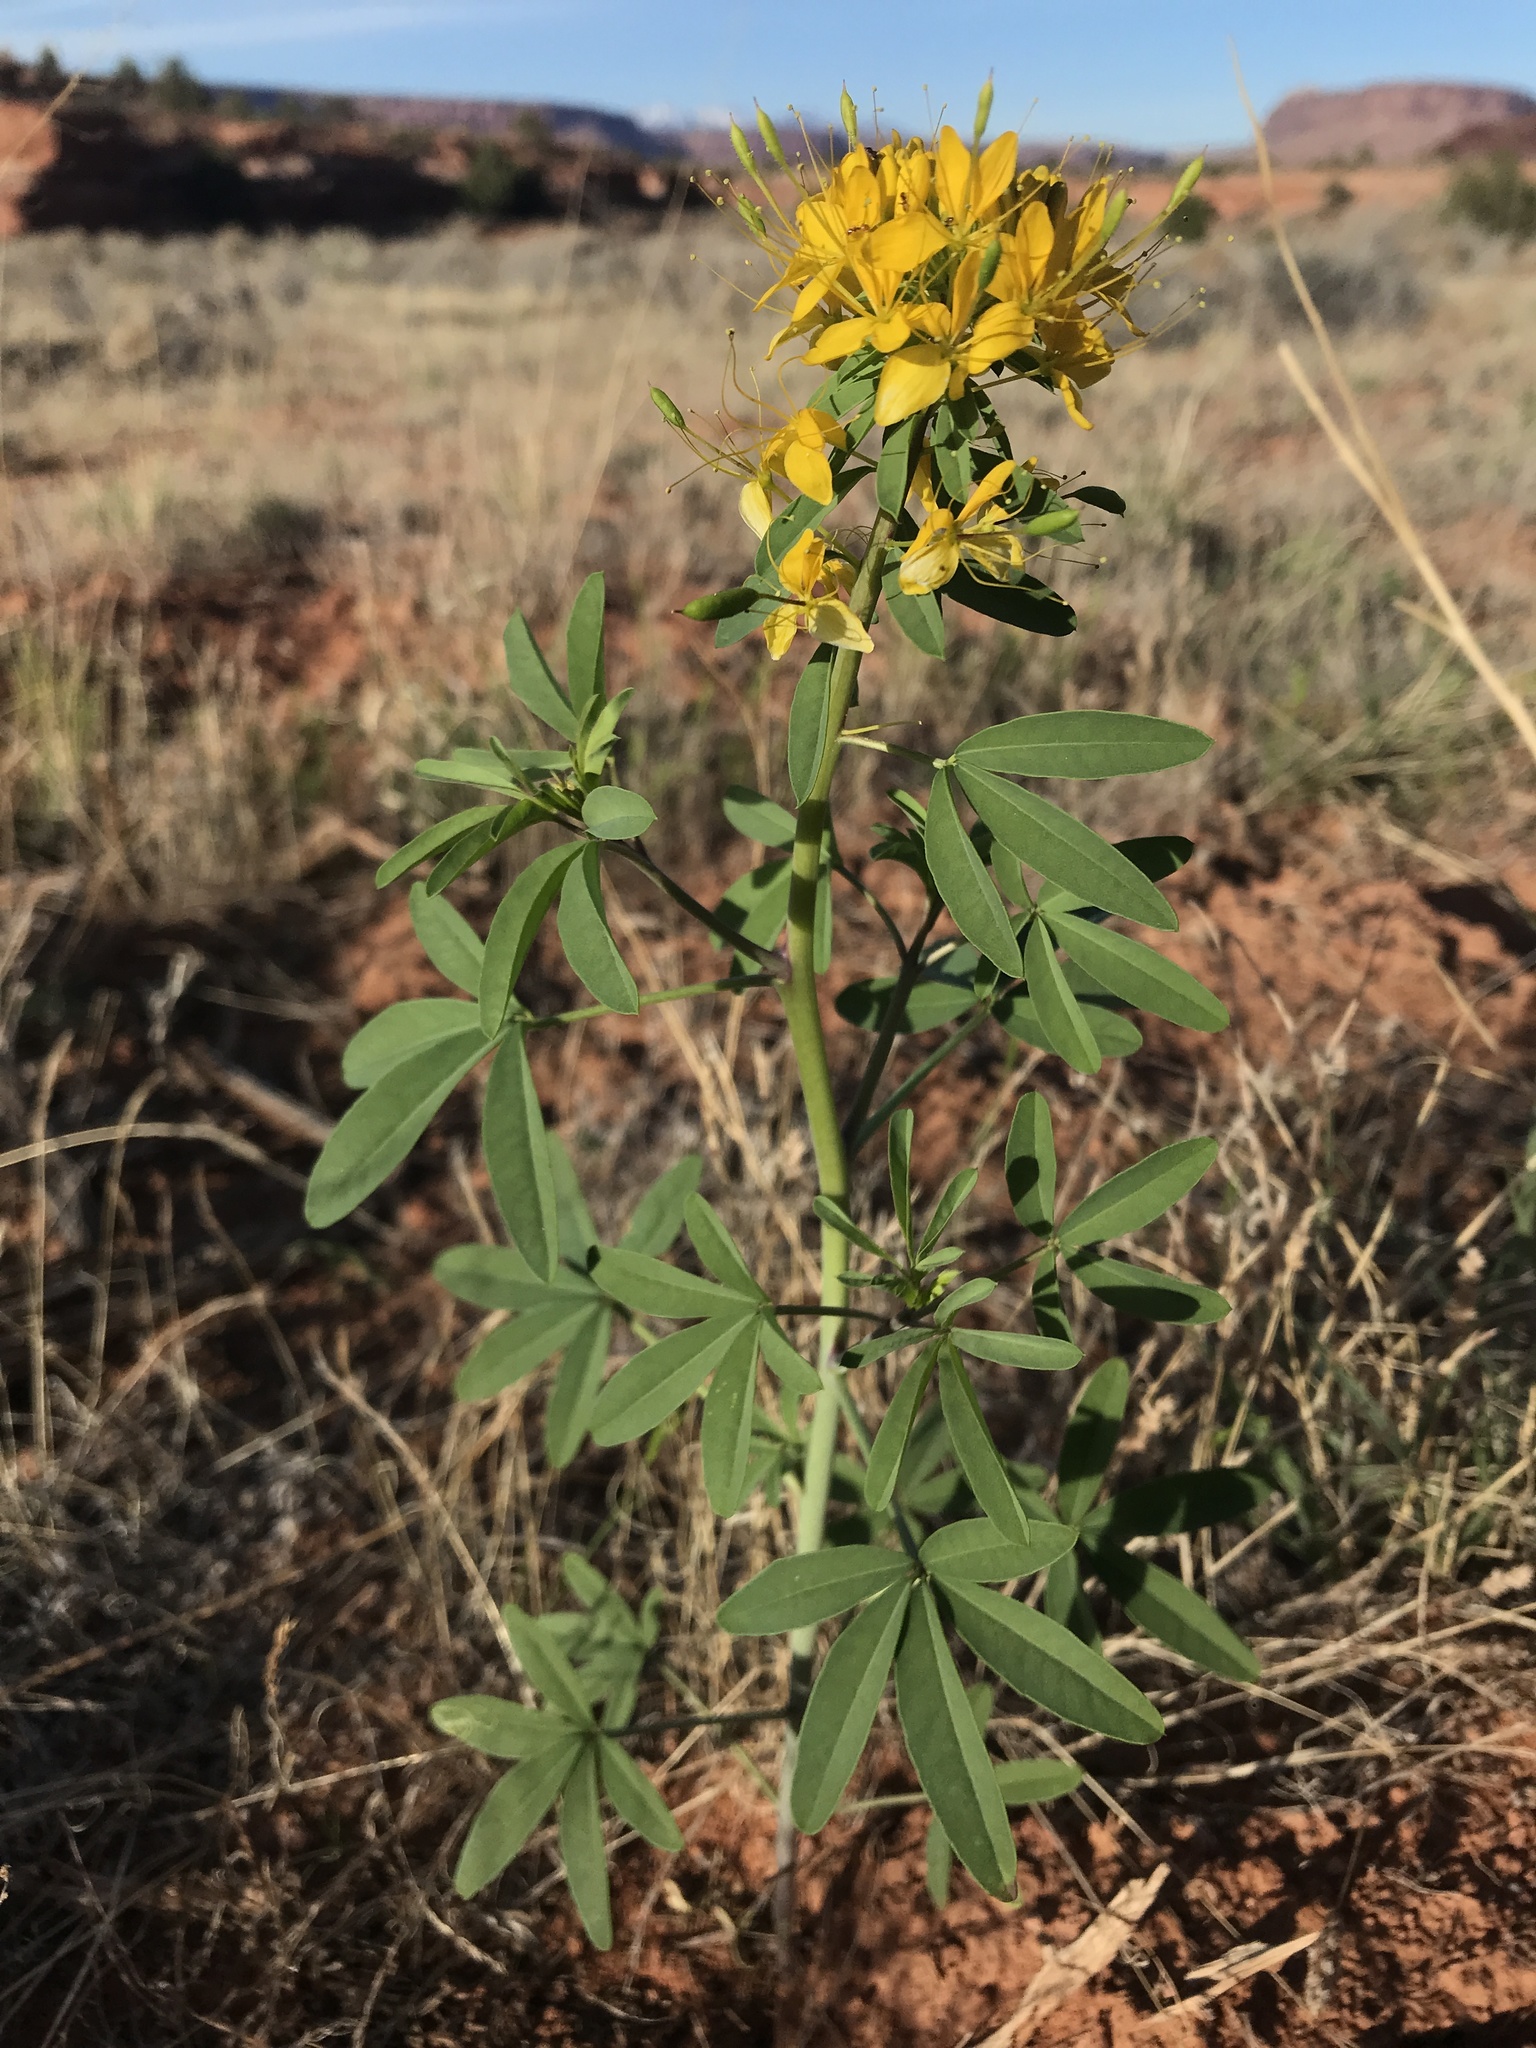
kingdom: Plantae
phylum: Tracheophyta
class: Magnoliopsida
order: Brassicales
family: Cleomaceae
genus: Cleomella
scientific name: Cleomella lutea
